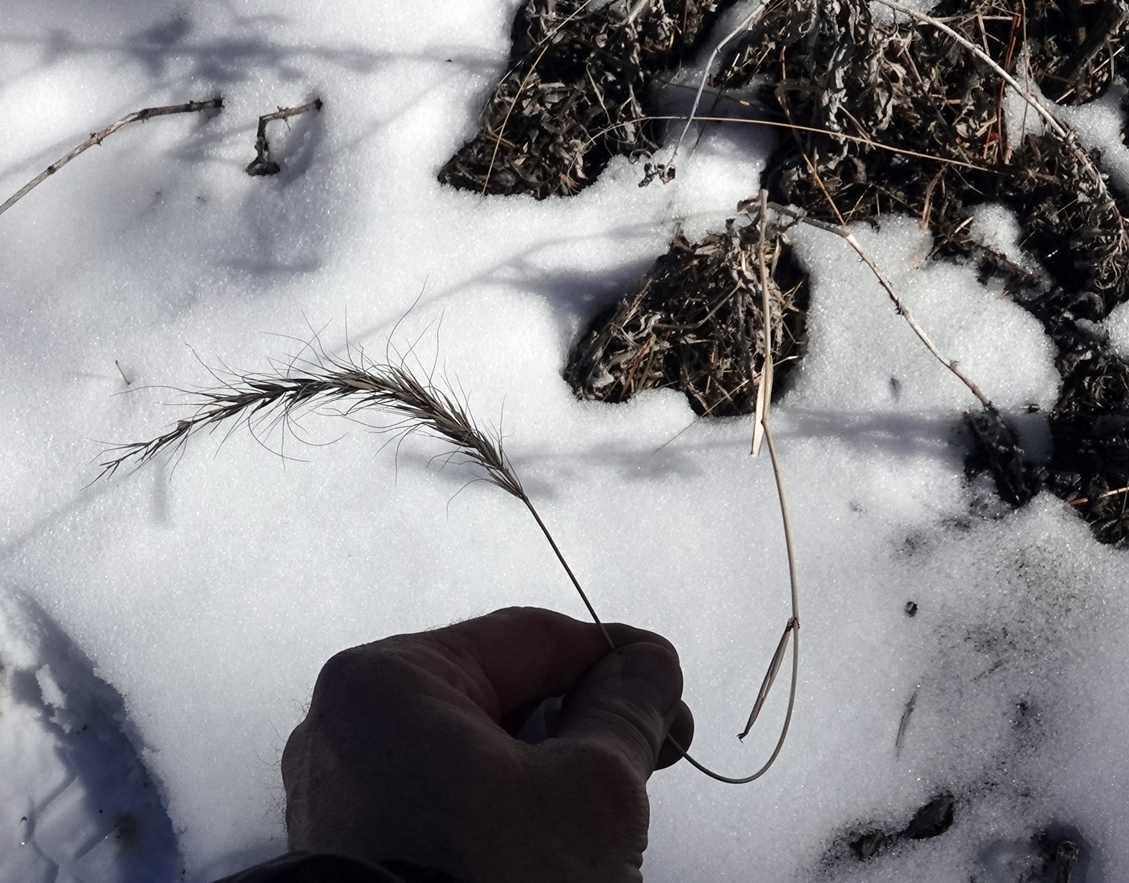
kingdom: Plantae
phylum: Tracheophyta
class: Liliopsida
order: Poales
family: Poaceae
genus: Elymus
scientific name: Elymus canadensis
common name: Canada wild rye
